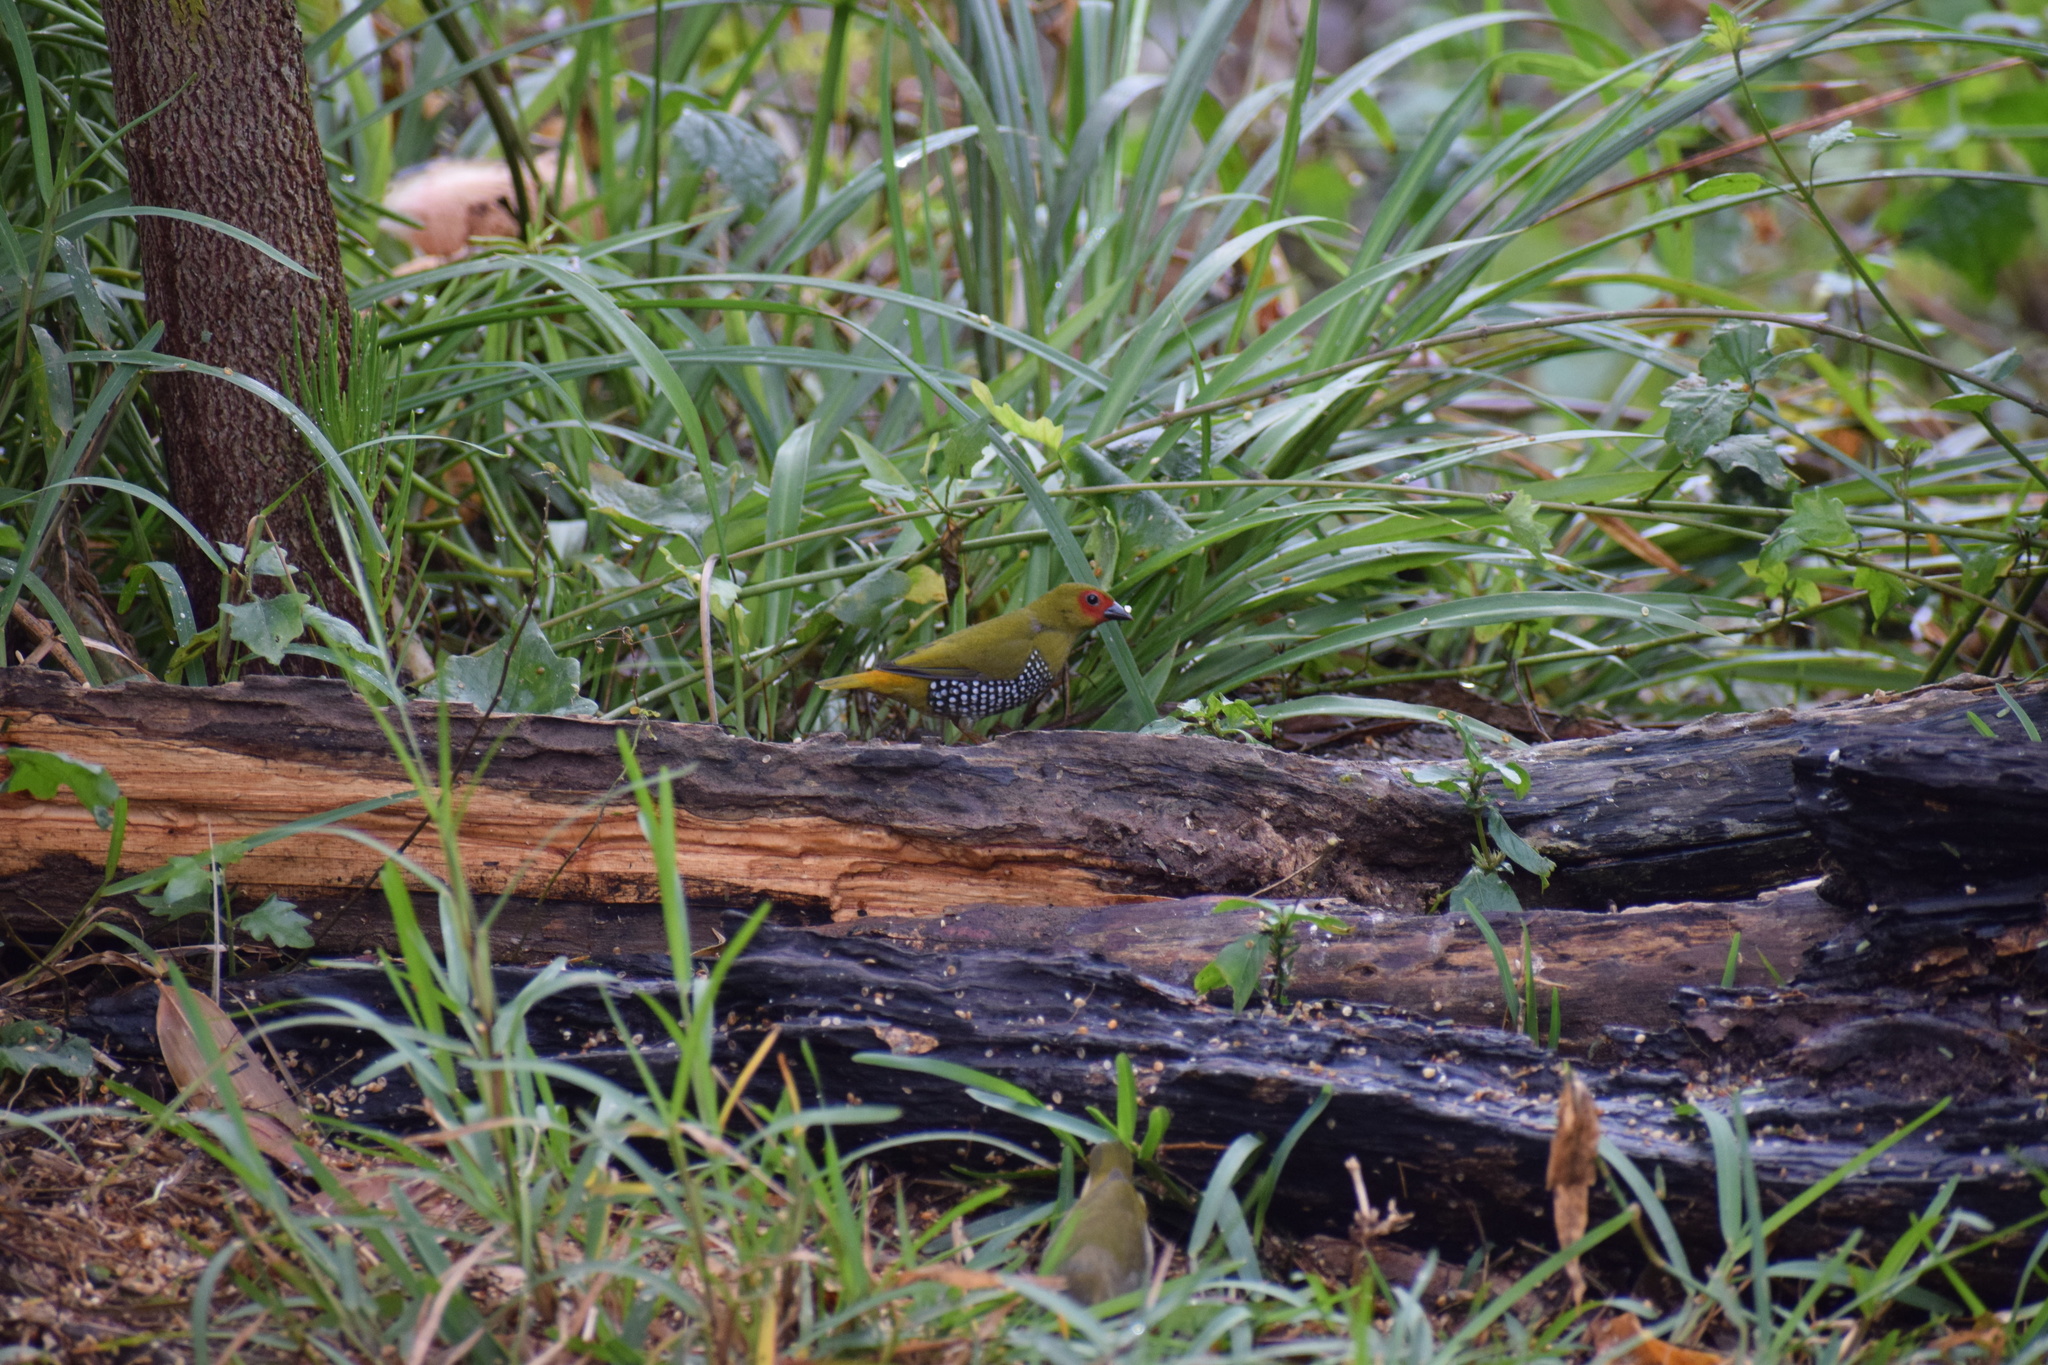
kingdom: Animalia
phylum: Chordata
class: Aves
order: Passeriformes
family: Estrildidae
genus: Mandingoa
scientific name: Mandingoa nitidula
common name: Green twinspot
